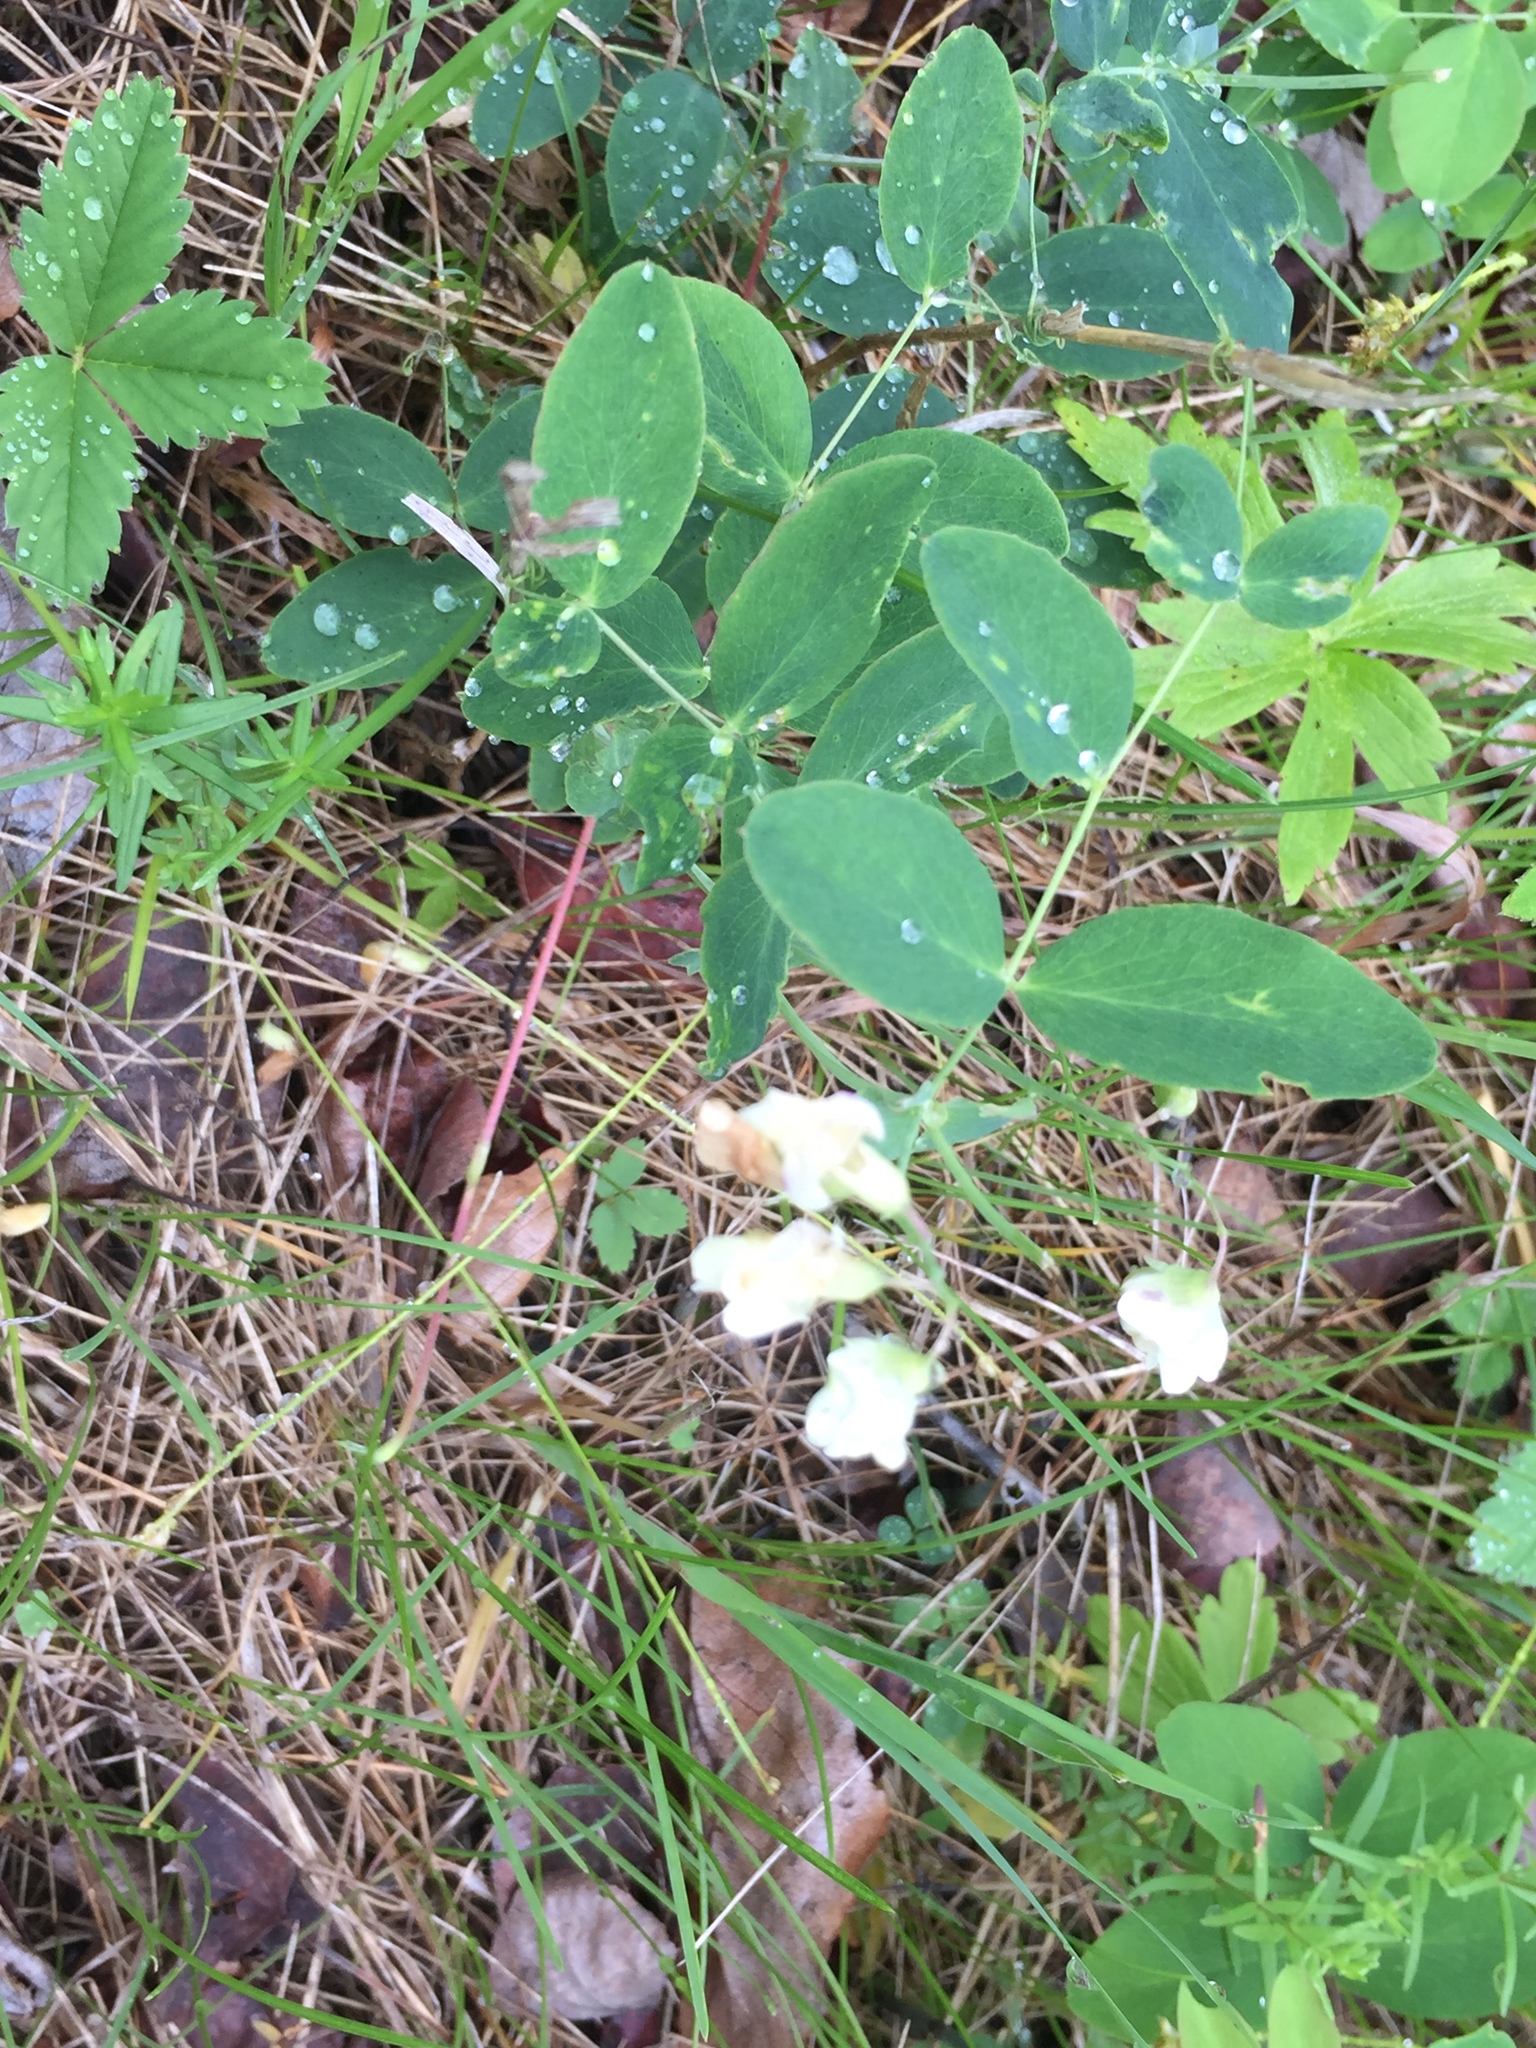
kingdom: Plantae
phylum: Tracheophyta
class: Magnoliopsida
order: Fabales
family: Fabaceae
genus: Lathyrus
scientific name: Lathyrus ochroleucus
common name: Pale vetchling
